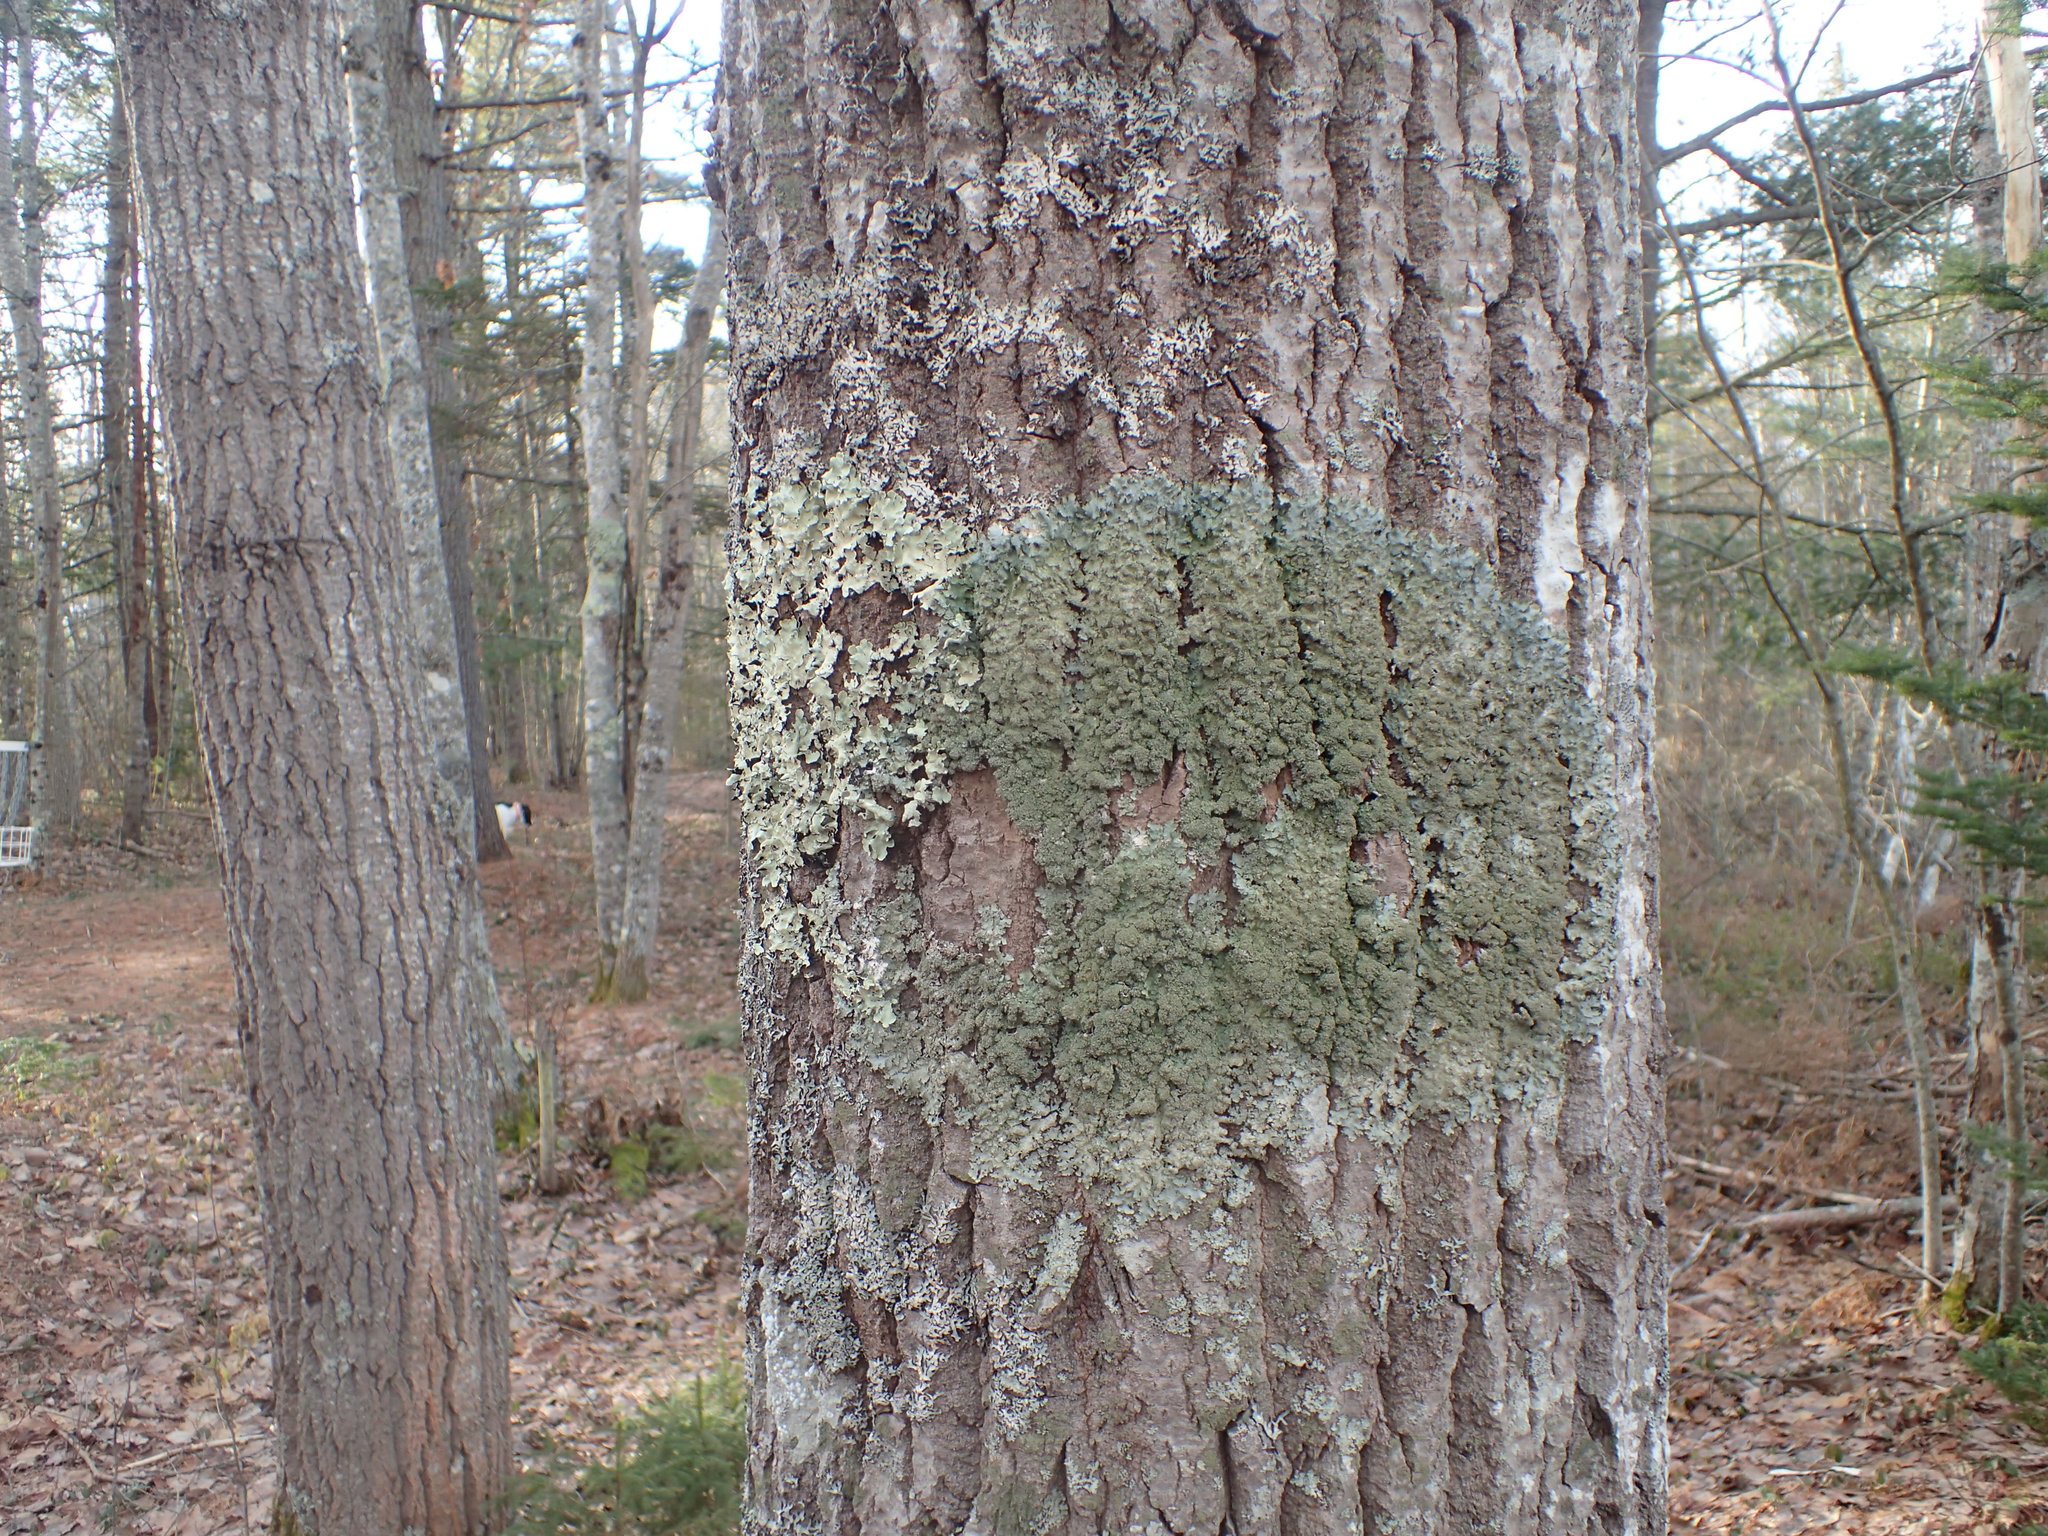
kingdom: Fungi
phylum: Ascomycota
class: Lecanoromycetes
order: Lecanorales
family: Parmeliaceae
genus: Punctelia
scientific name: Punctelia rudecta
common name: Rough speckled shield lichen
